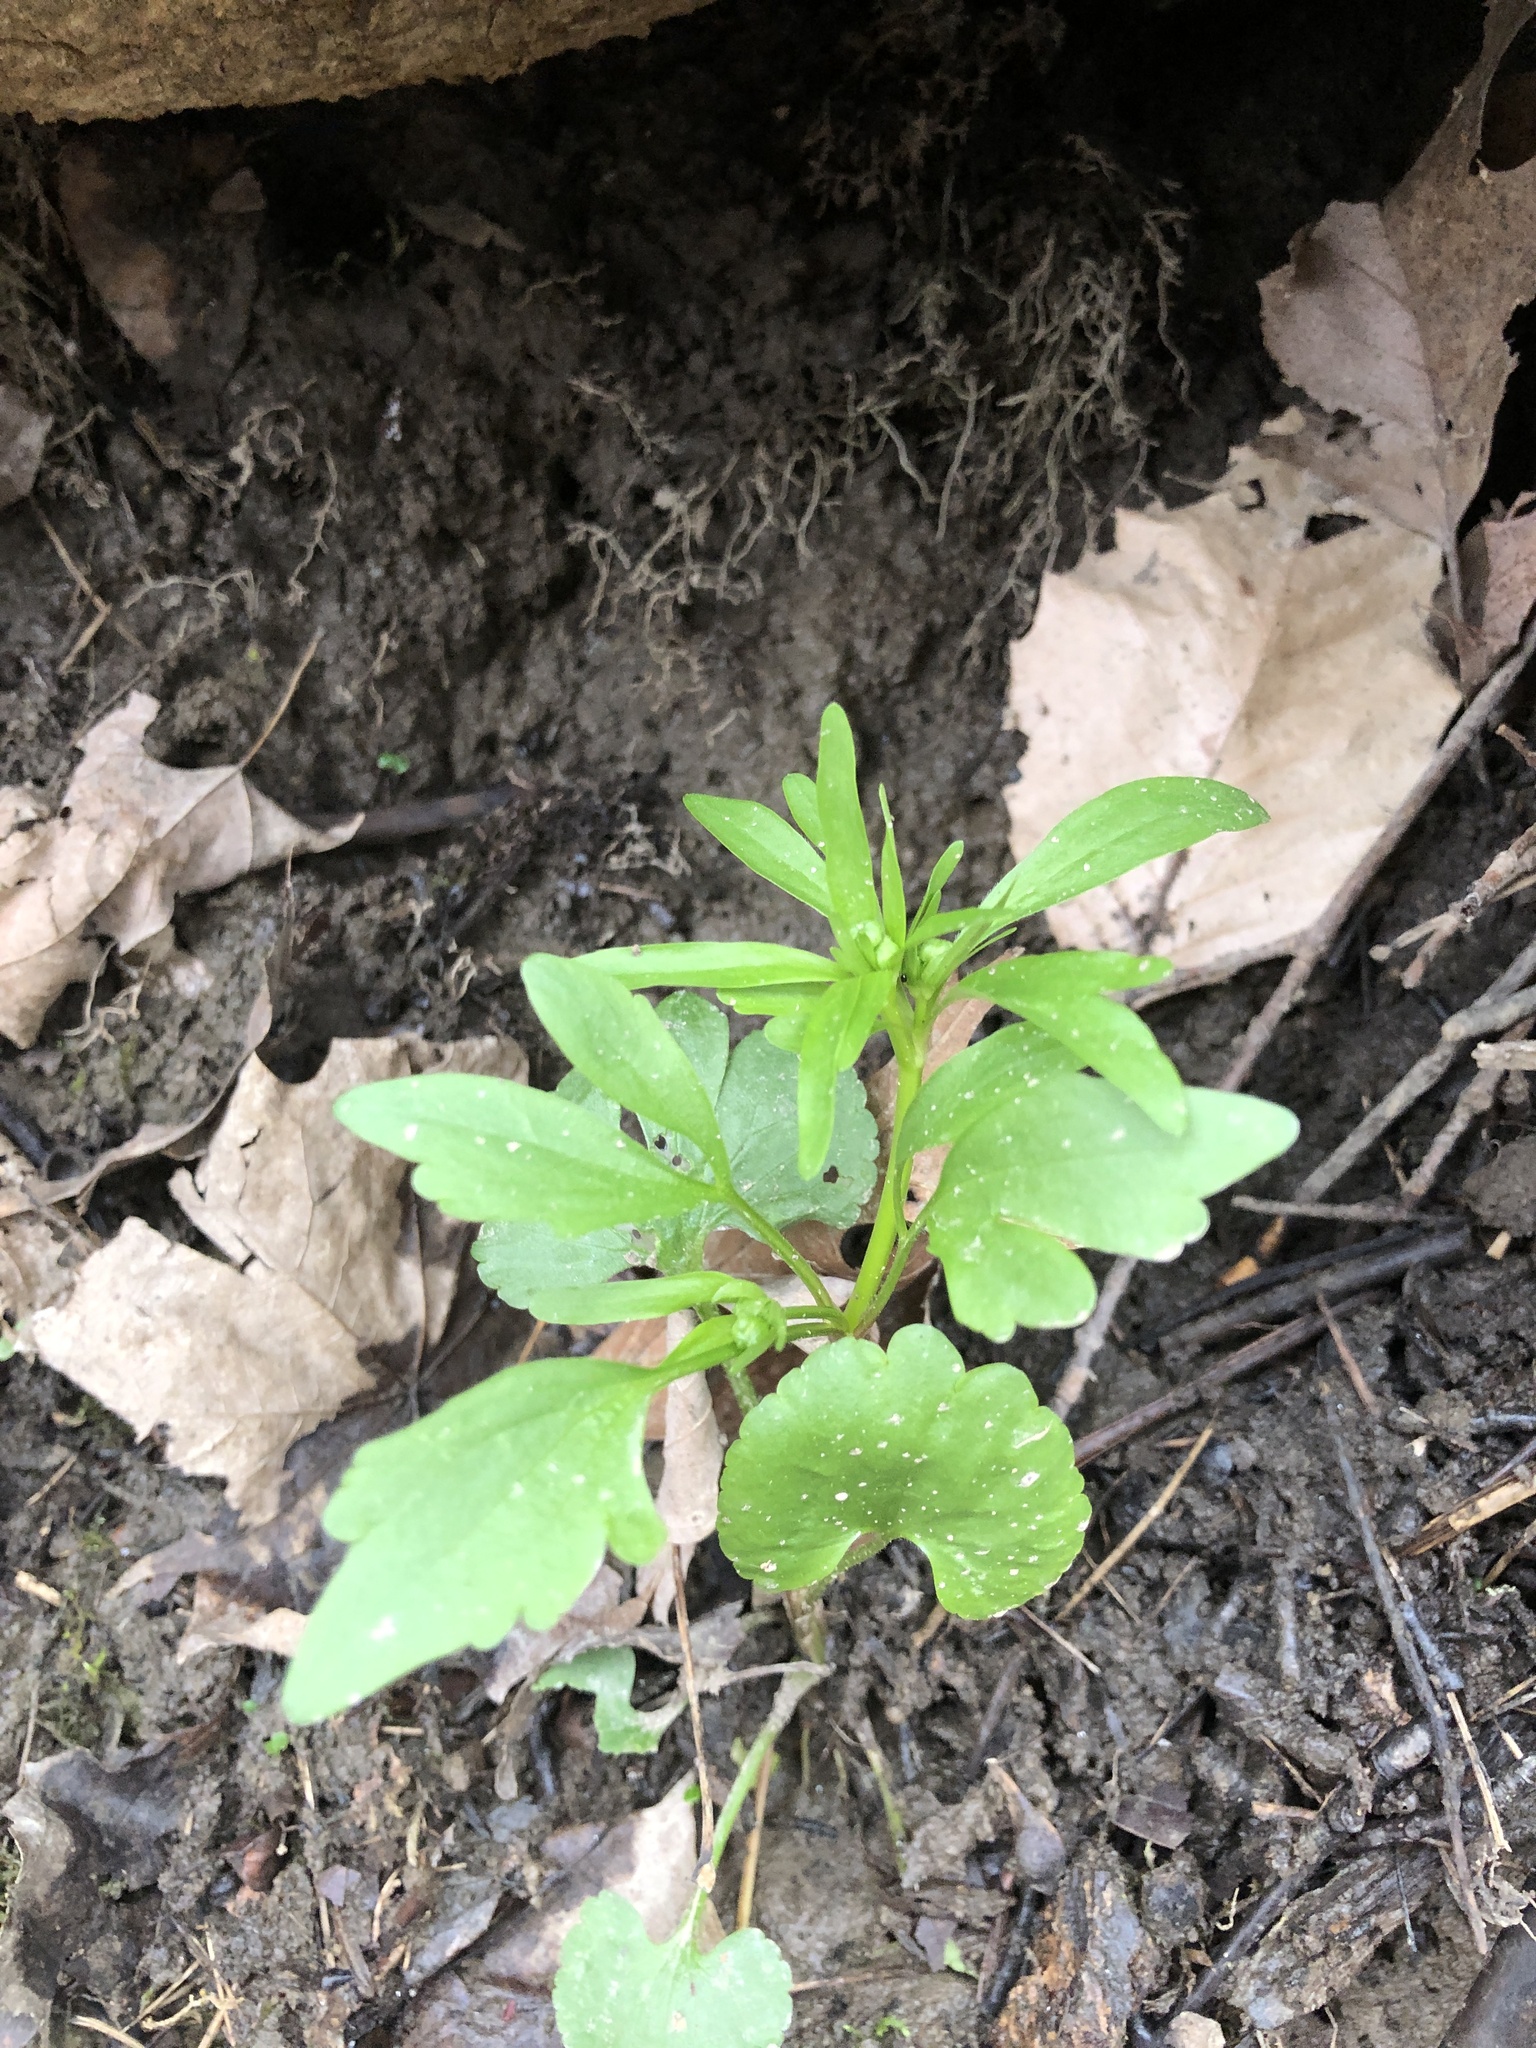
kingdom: Plantae
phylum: Tracheophyta
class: Magnoliopsida
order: Ranunculales
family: Ranunculaceae
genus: Ranunculus
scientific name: Ranunculus abortivus
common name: Early wood buttercup
